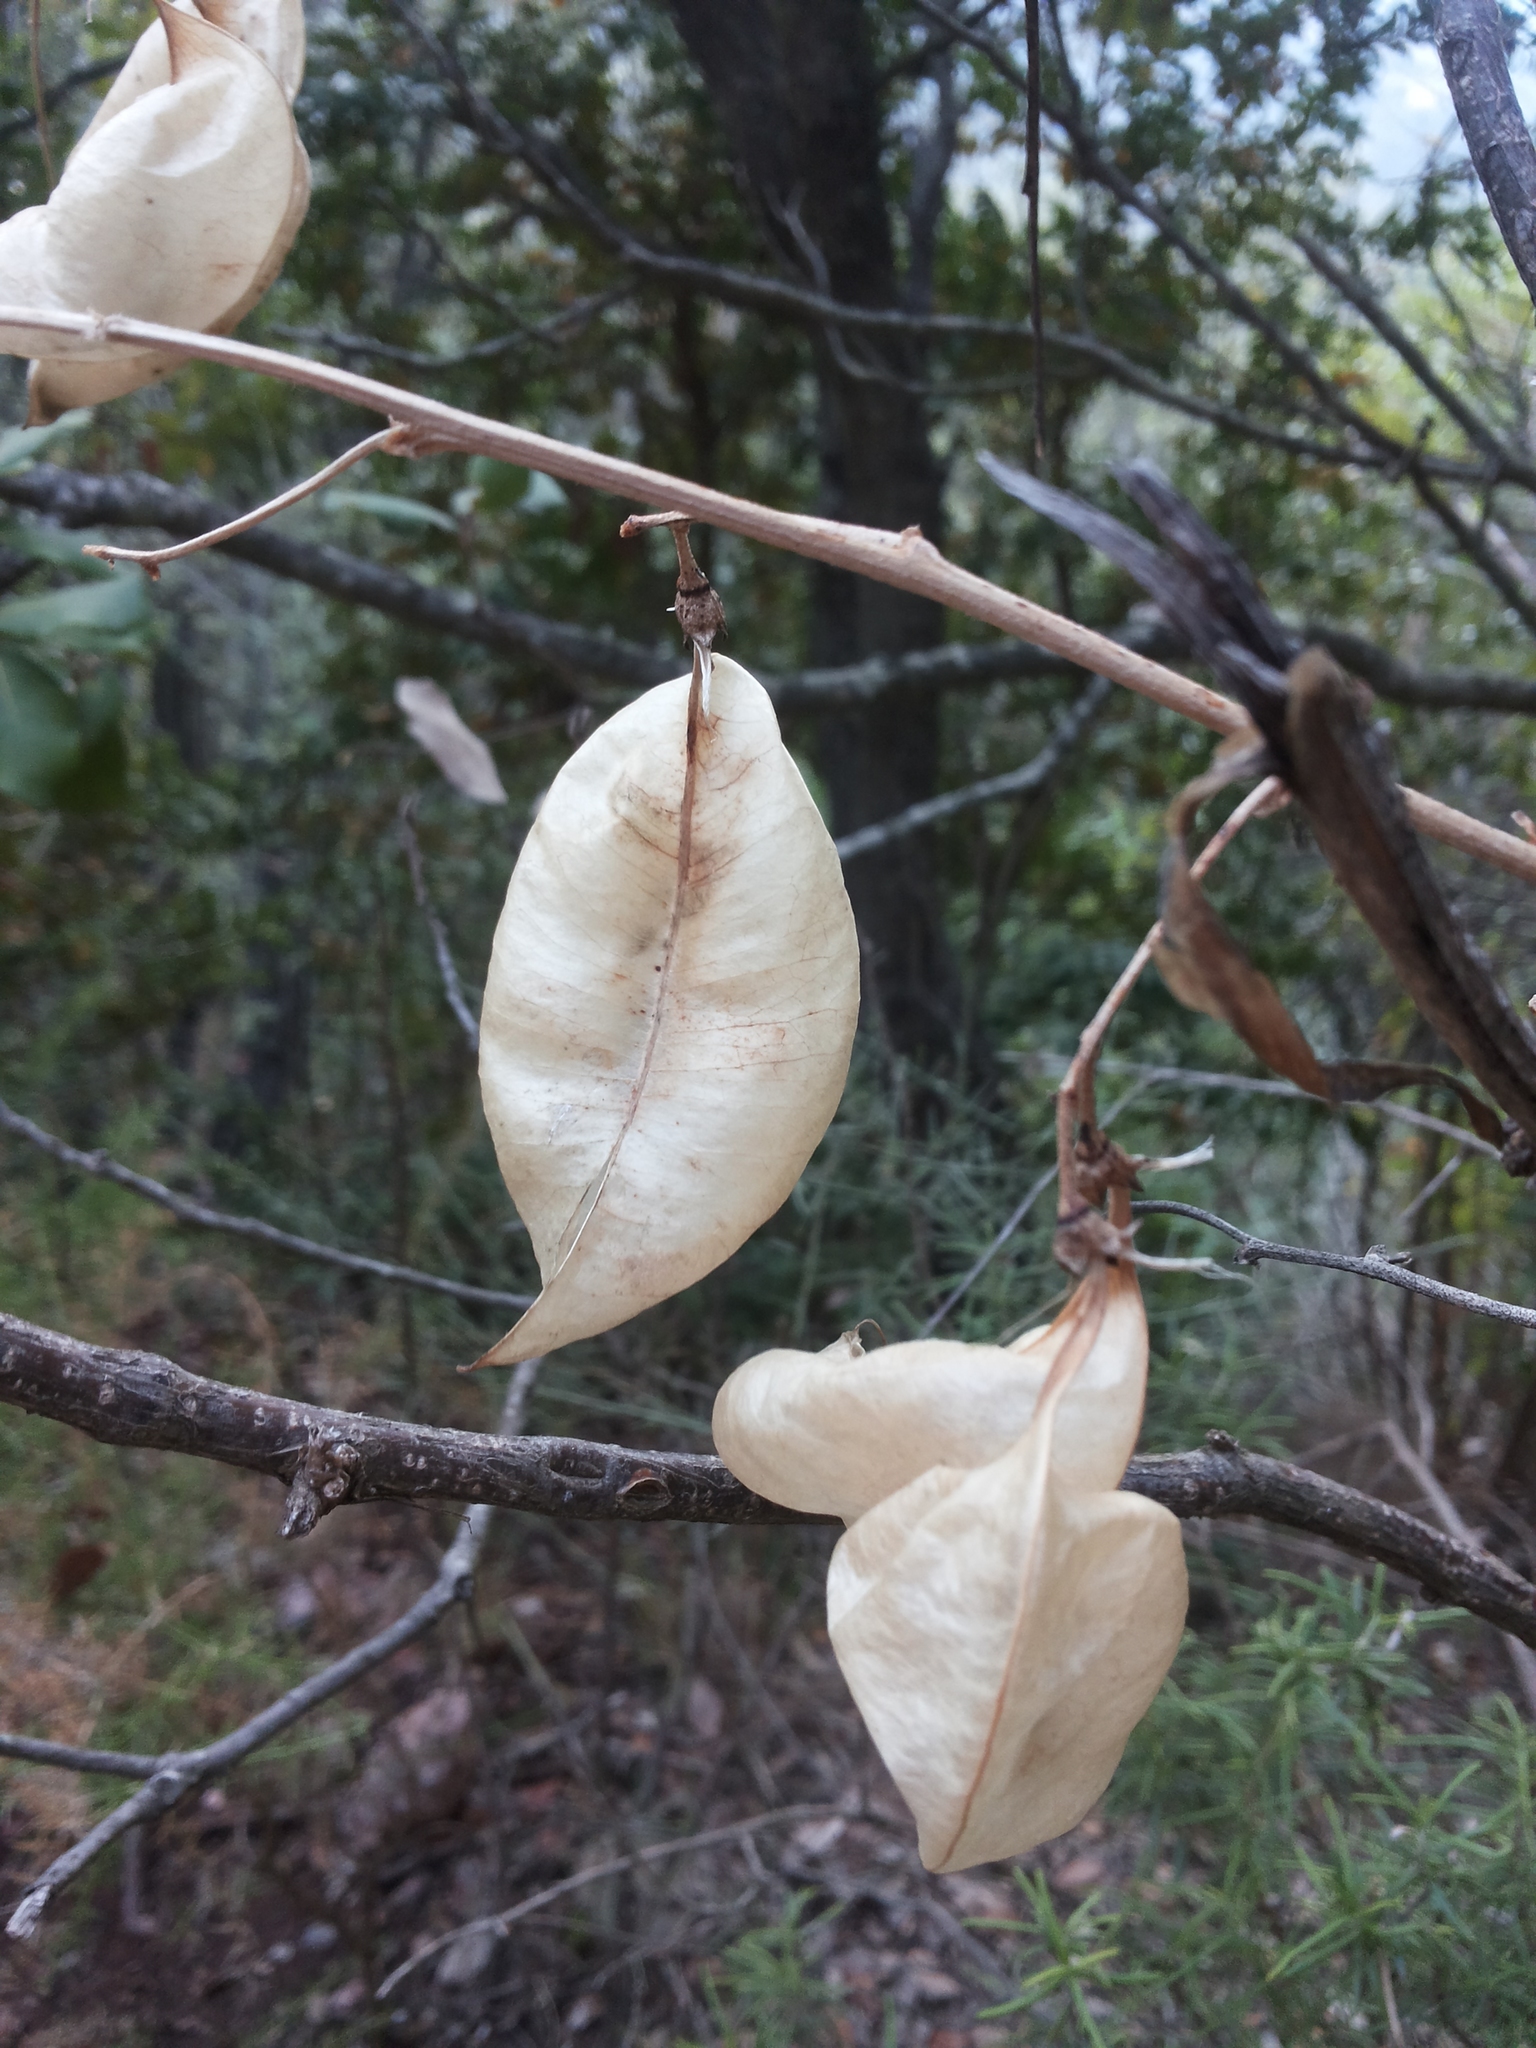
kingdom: Plantae
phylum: Tracheophyta
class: Magnoliopsida
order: Fabales
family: Fabaceae
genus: Colutea
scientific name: Colutea arborescens
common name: Bladder-senna
